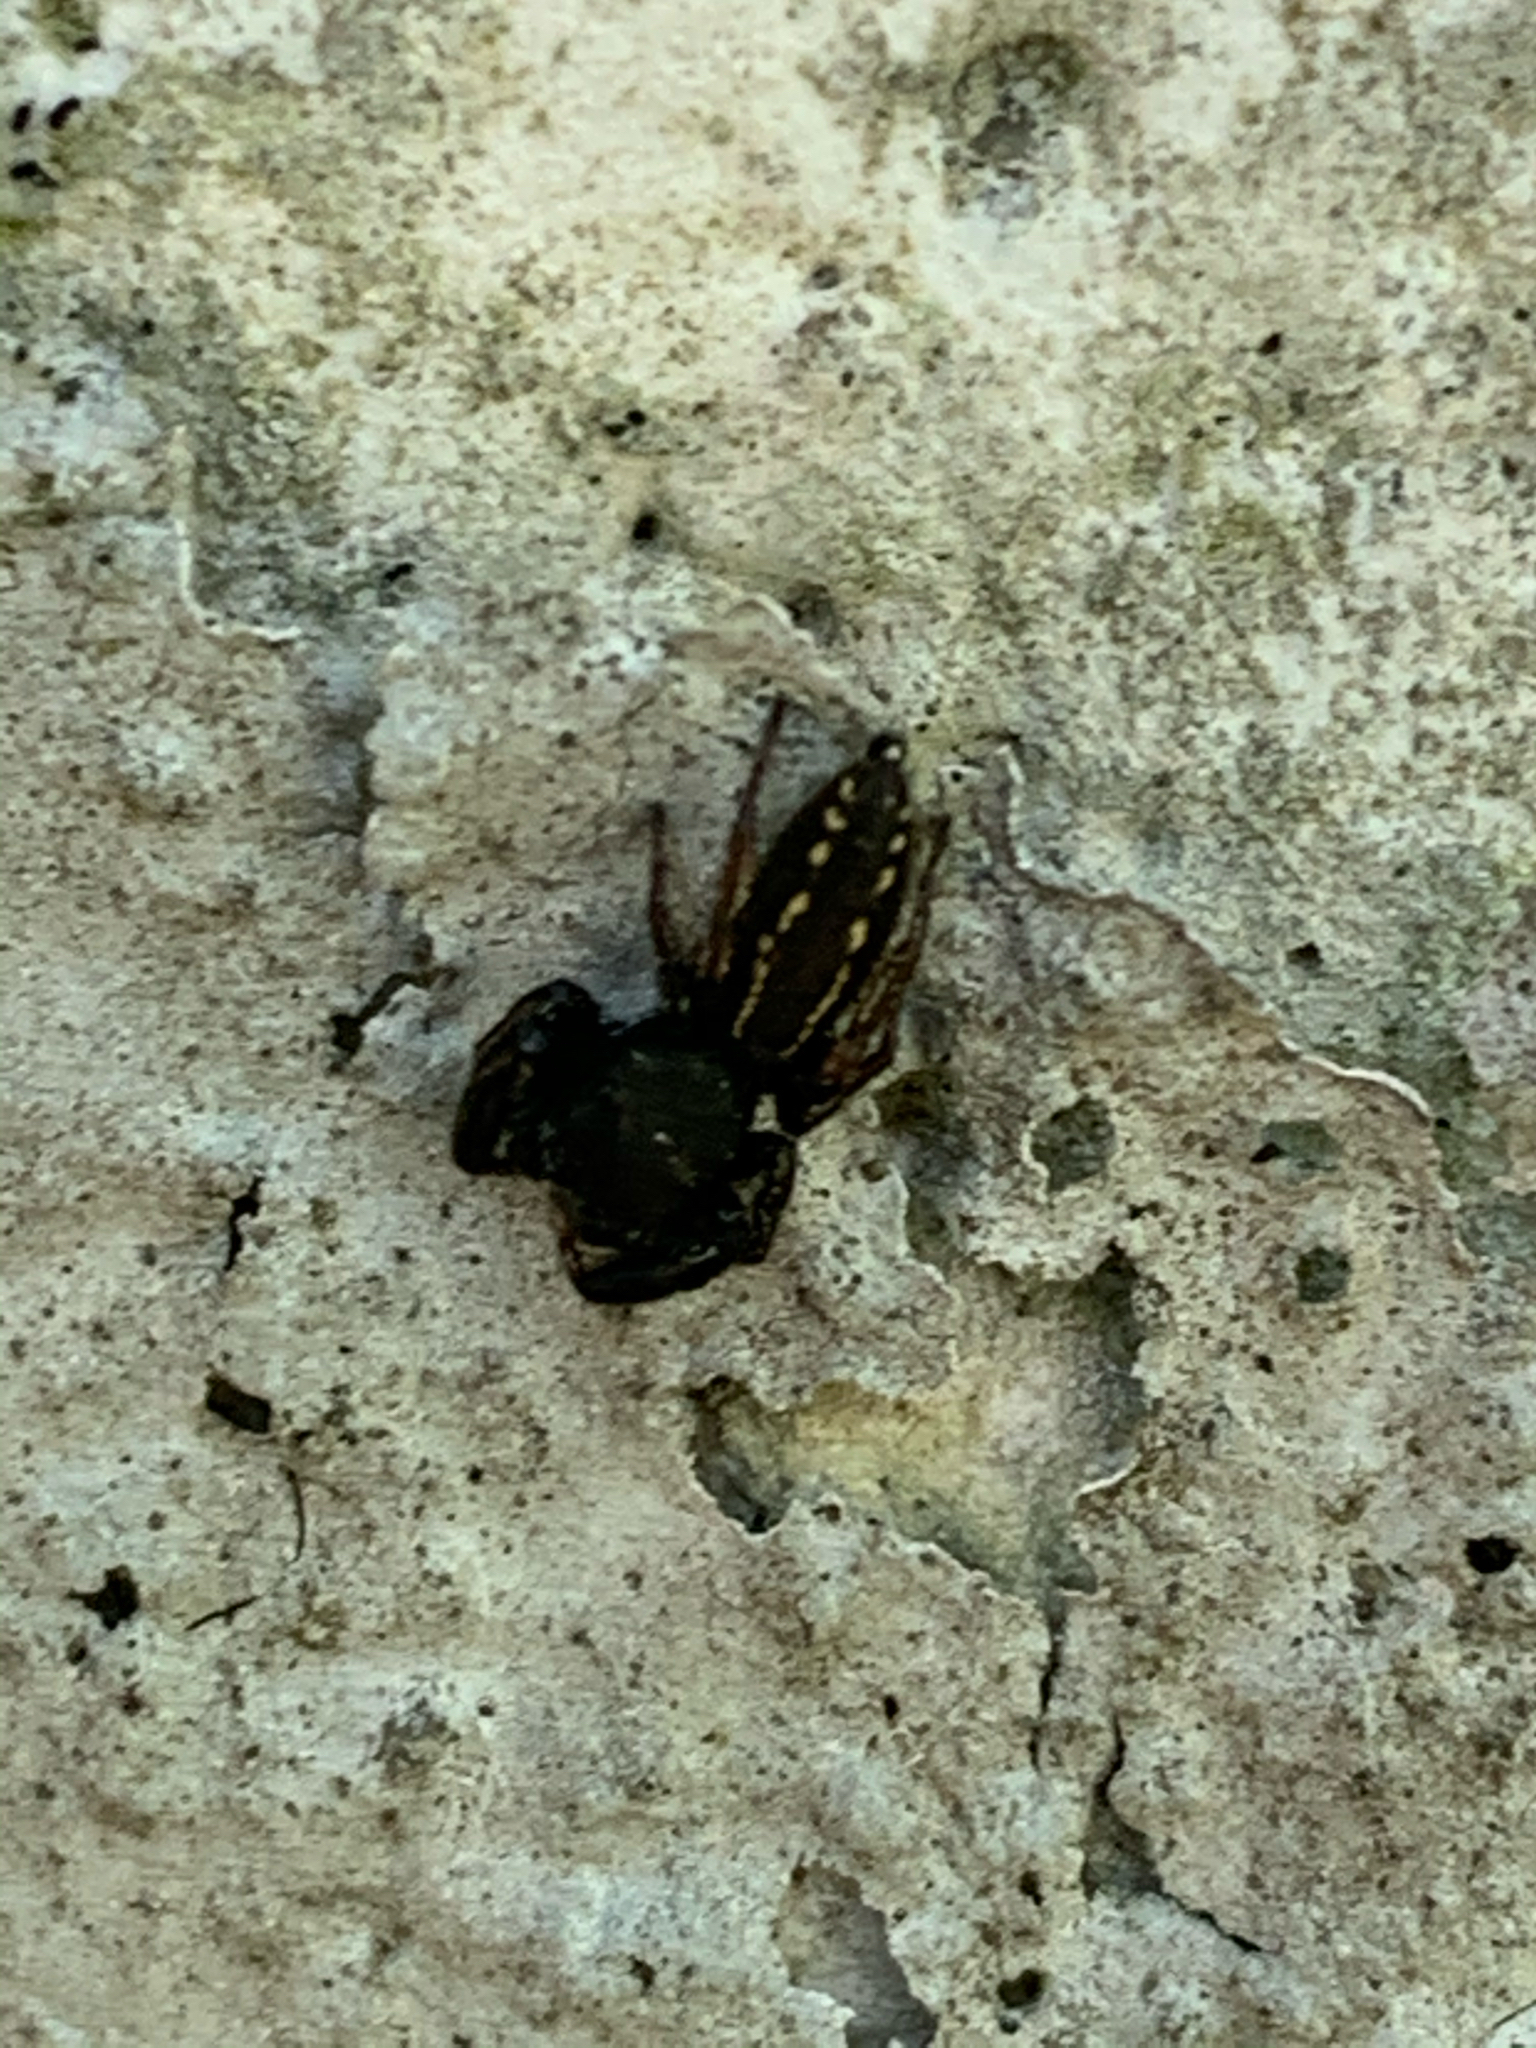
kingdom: Animalia
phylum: Arthropoda
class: Arachnida
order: Araneae
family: Salticidae
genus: Metacyrba
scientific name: Metacyrba taeniola
